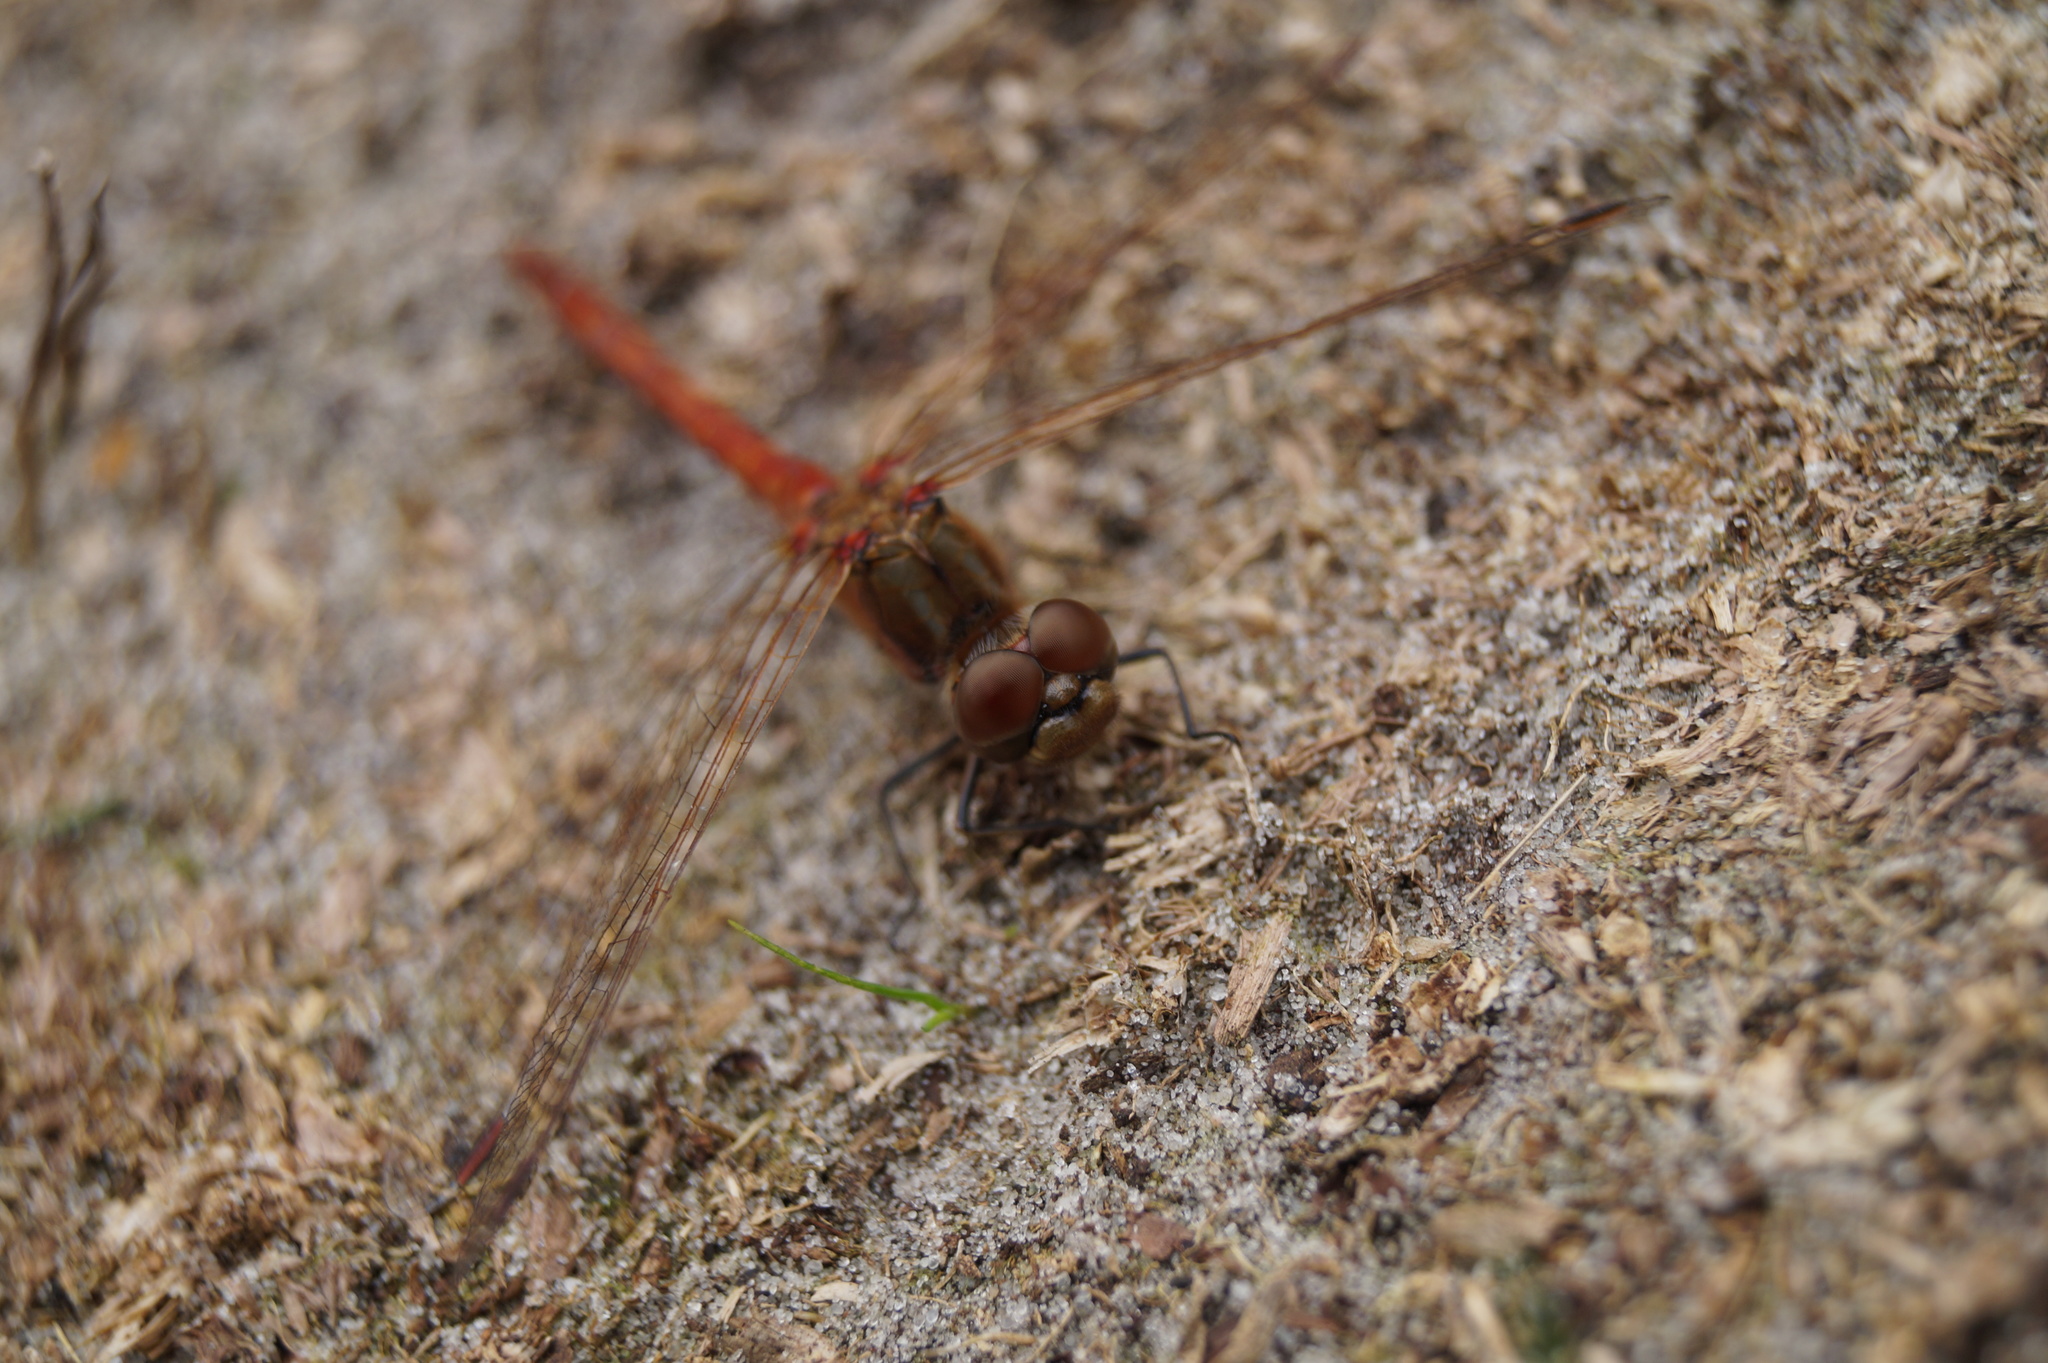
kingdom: Animalia
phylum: Arthropoda
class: Insecta
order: Odonata
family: Libellulidae
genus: Sympetrum
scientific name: Sympetrum vulgatum
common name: Vagrant darter
